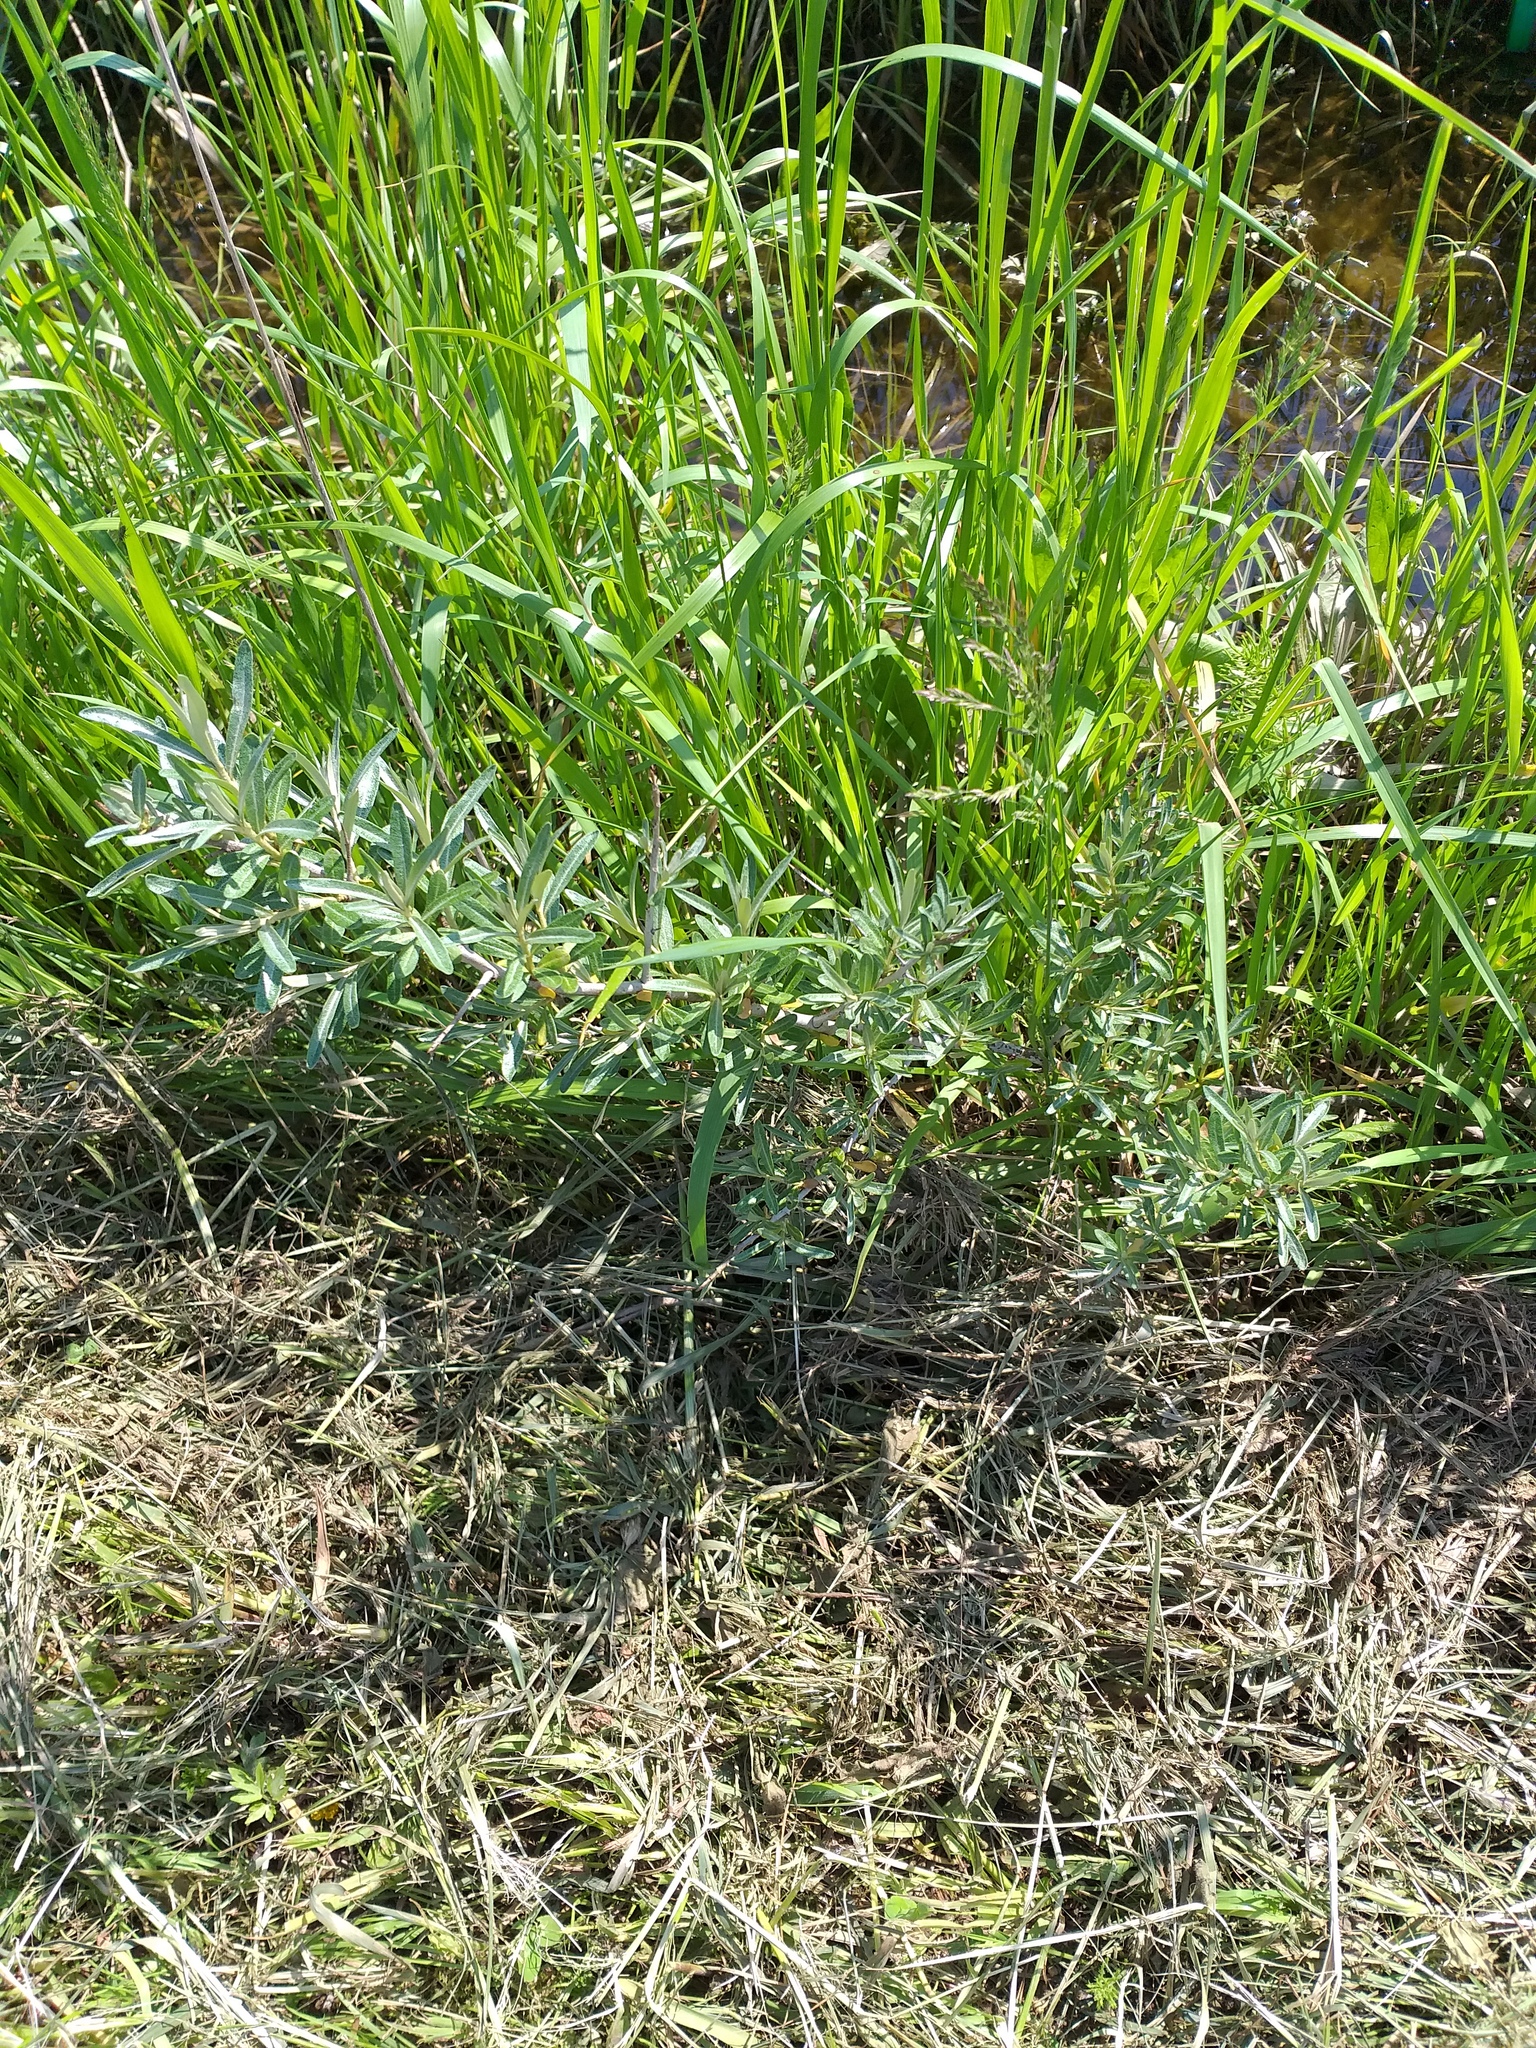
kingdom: Plantae
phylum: Tracheophyta
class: Magnoliopsida
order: Rosales
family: Elaeagnaceae
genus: Hippophae
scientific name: Hippophae rhamnoides
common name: Sea-buckthorn
